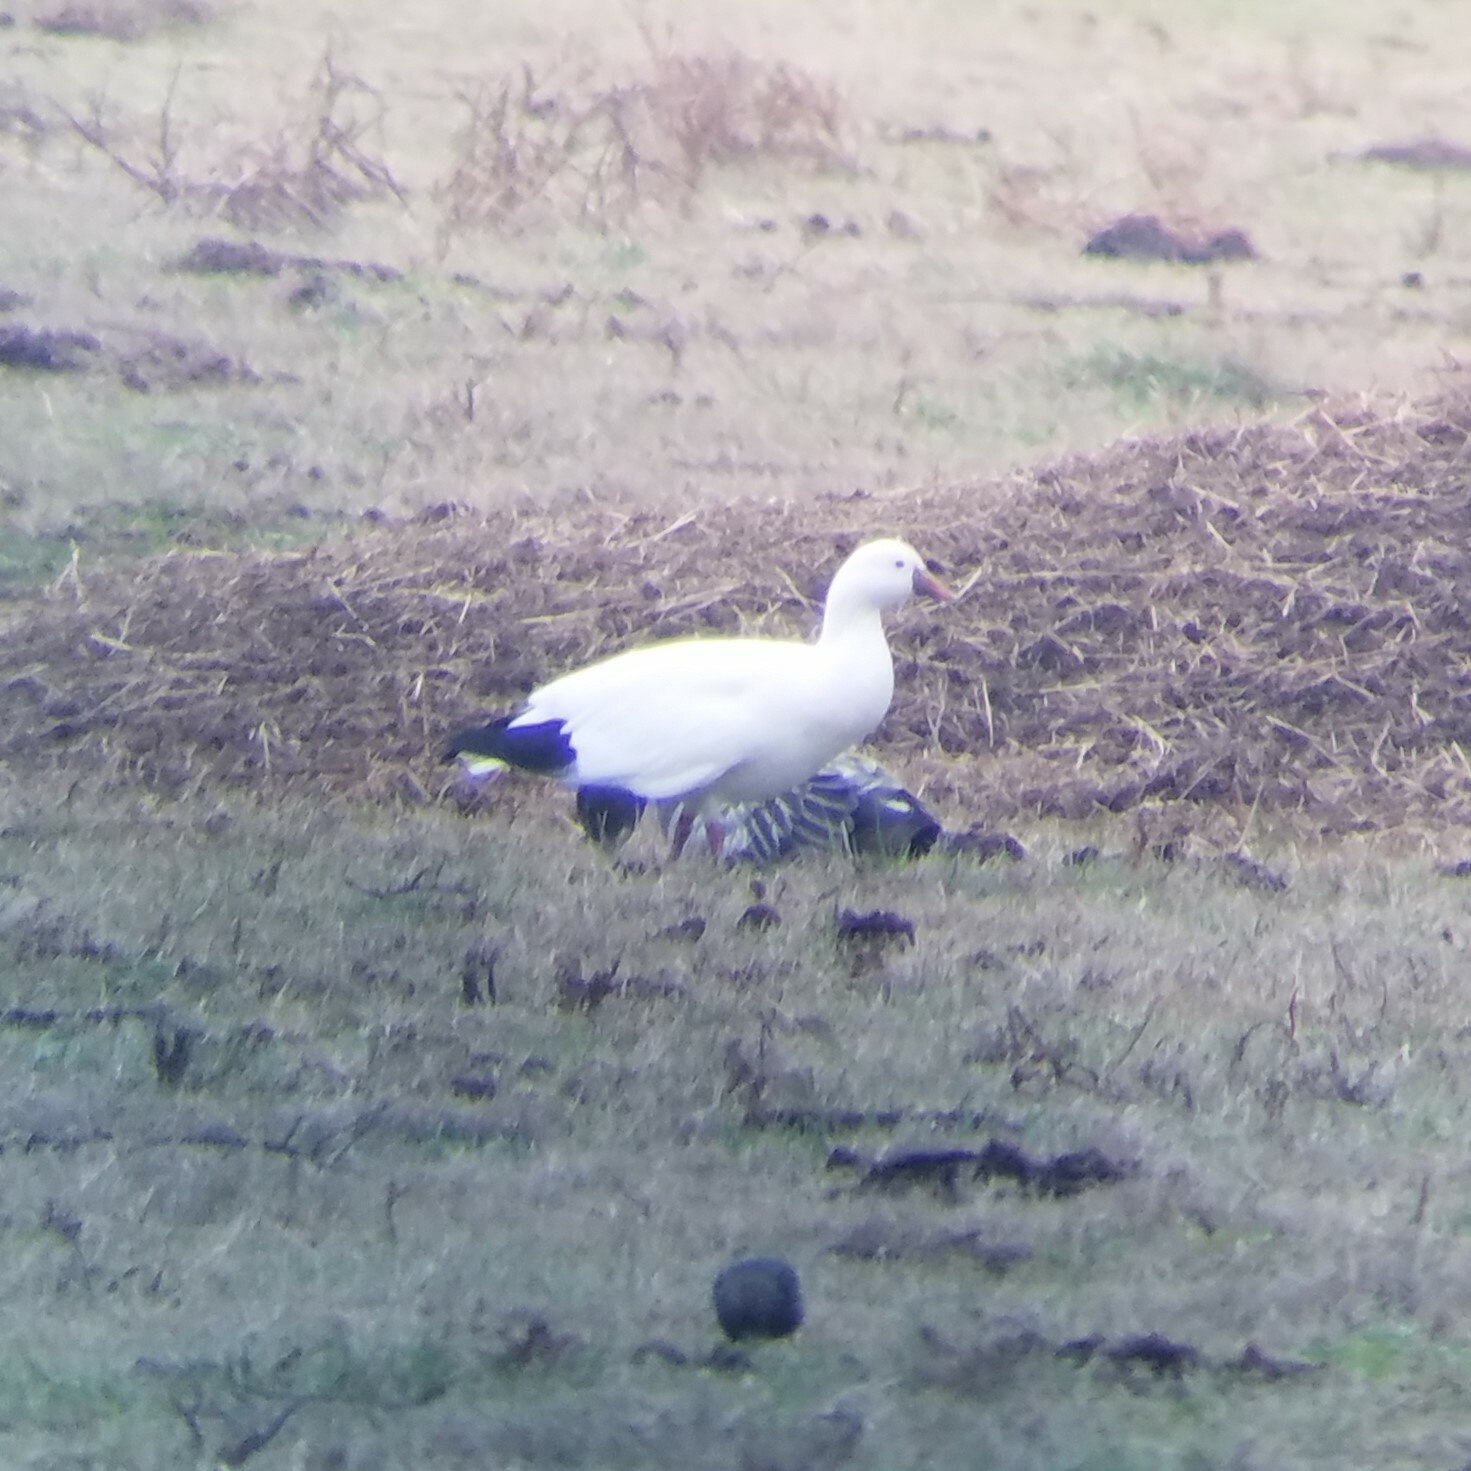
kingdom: Animalia
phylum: Chordata
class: Aves
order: Anseriformes
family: Anatidae
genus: Anser
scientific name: Anser rossii
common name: Ross's goose
